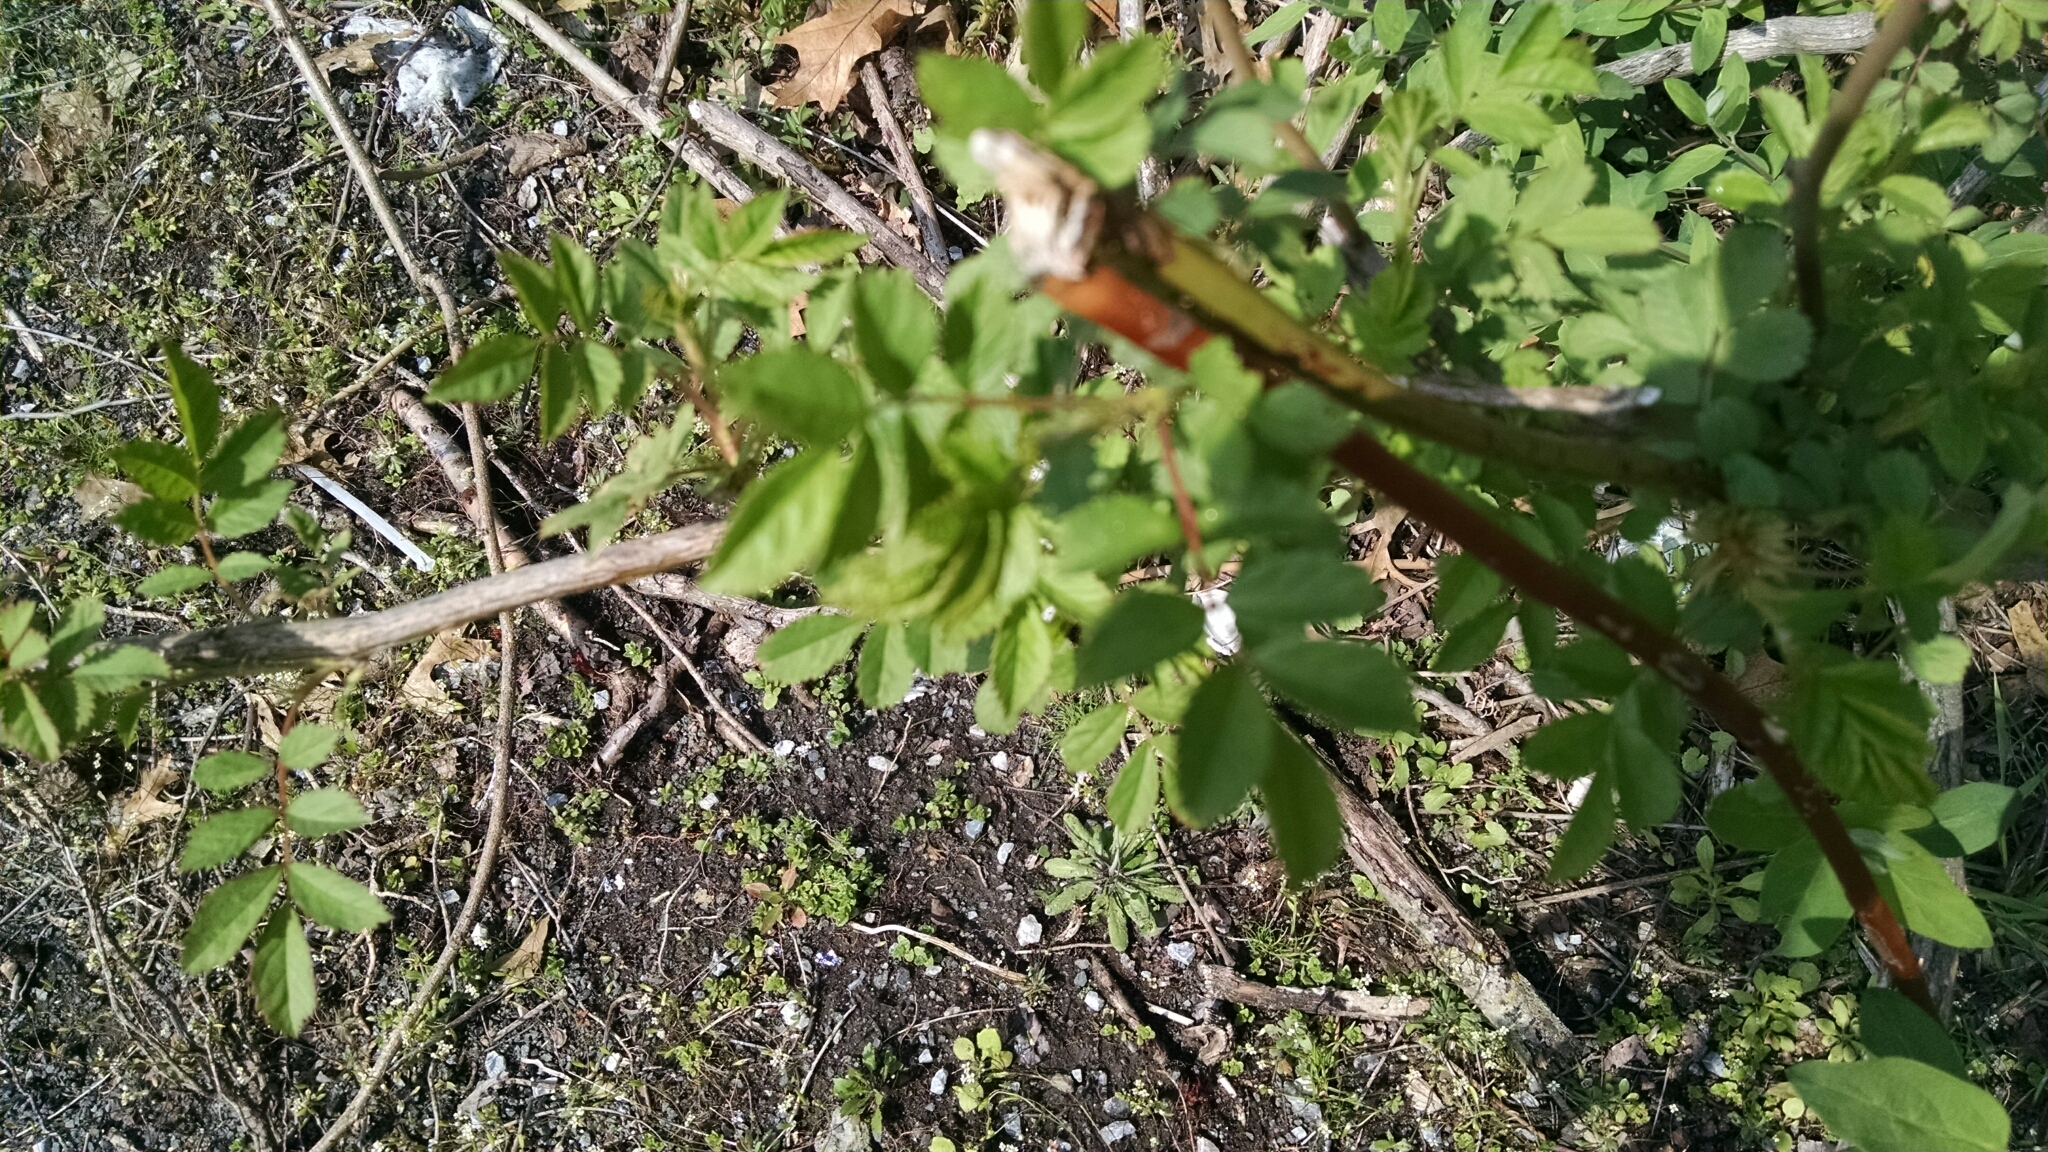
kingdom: Plantae
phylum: Tracheophyta
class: Magnoliopsida
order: Rosales
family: Rosaceae
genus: Rosa
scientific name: Rosa multiflora
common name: Multiflora rose
